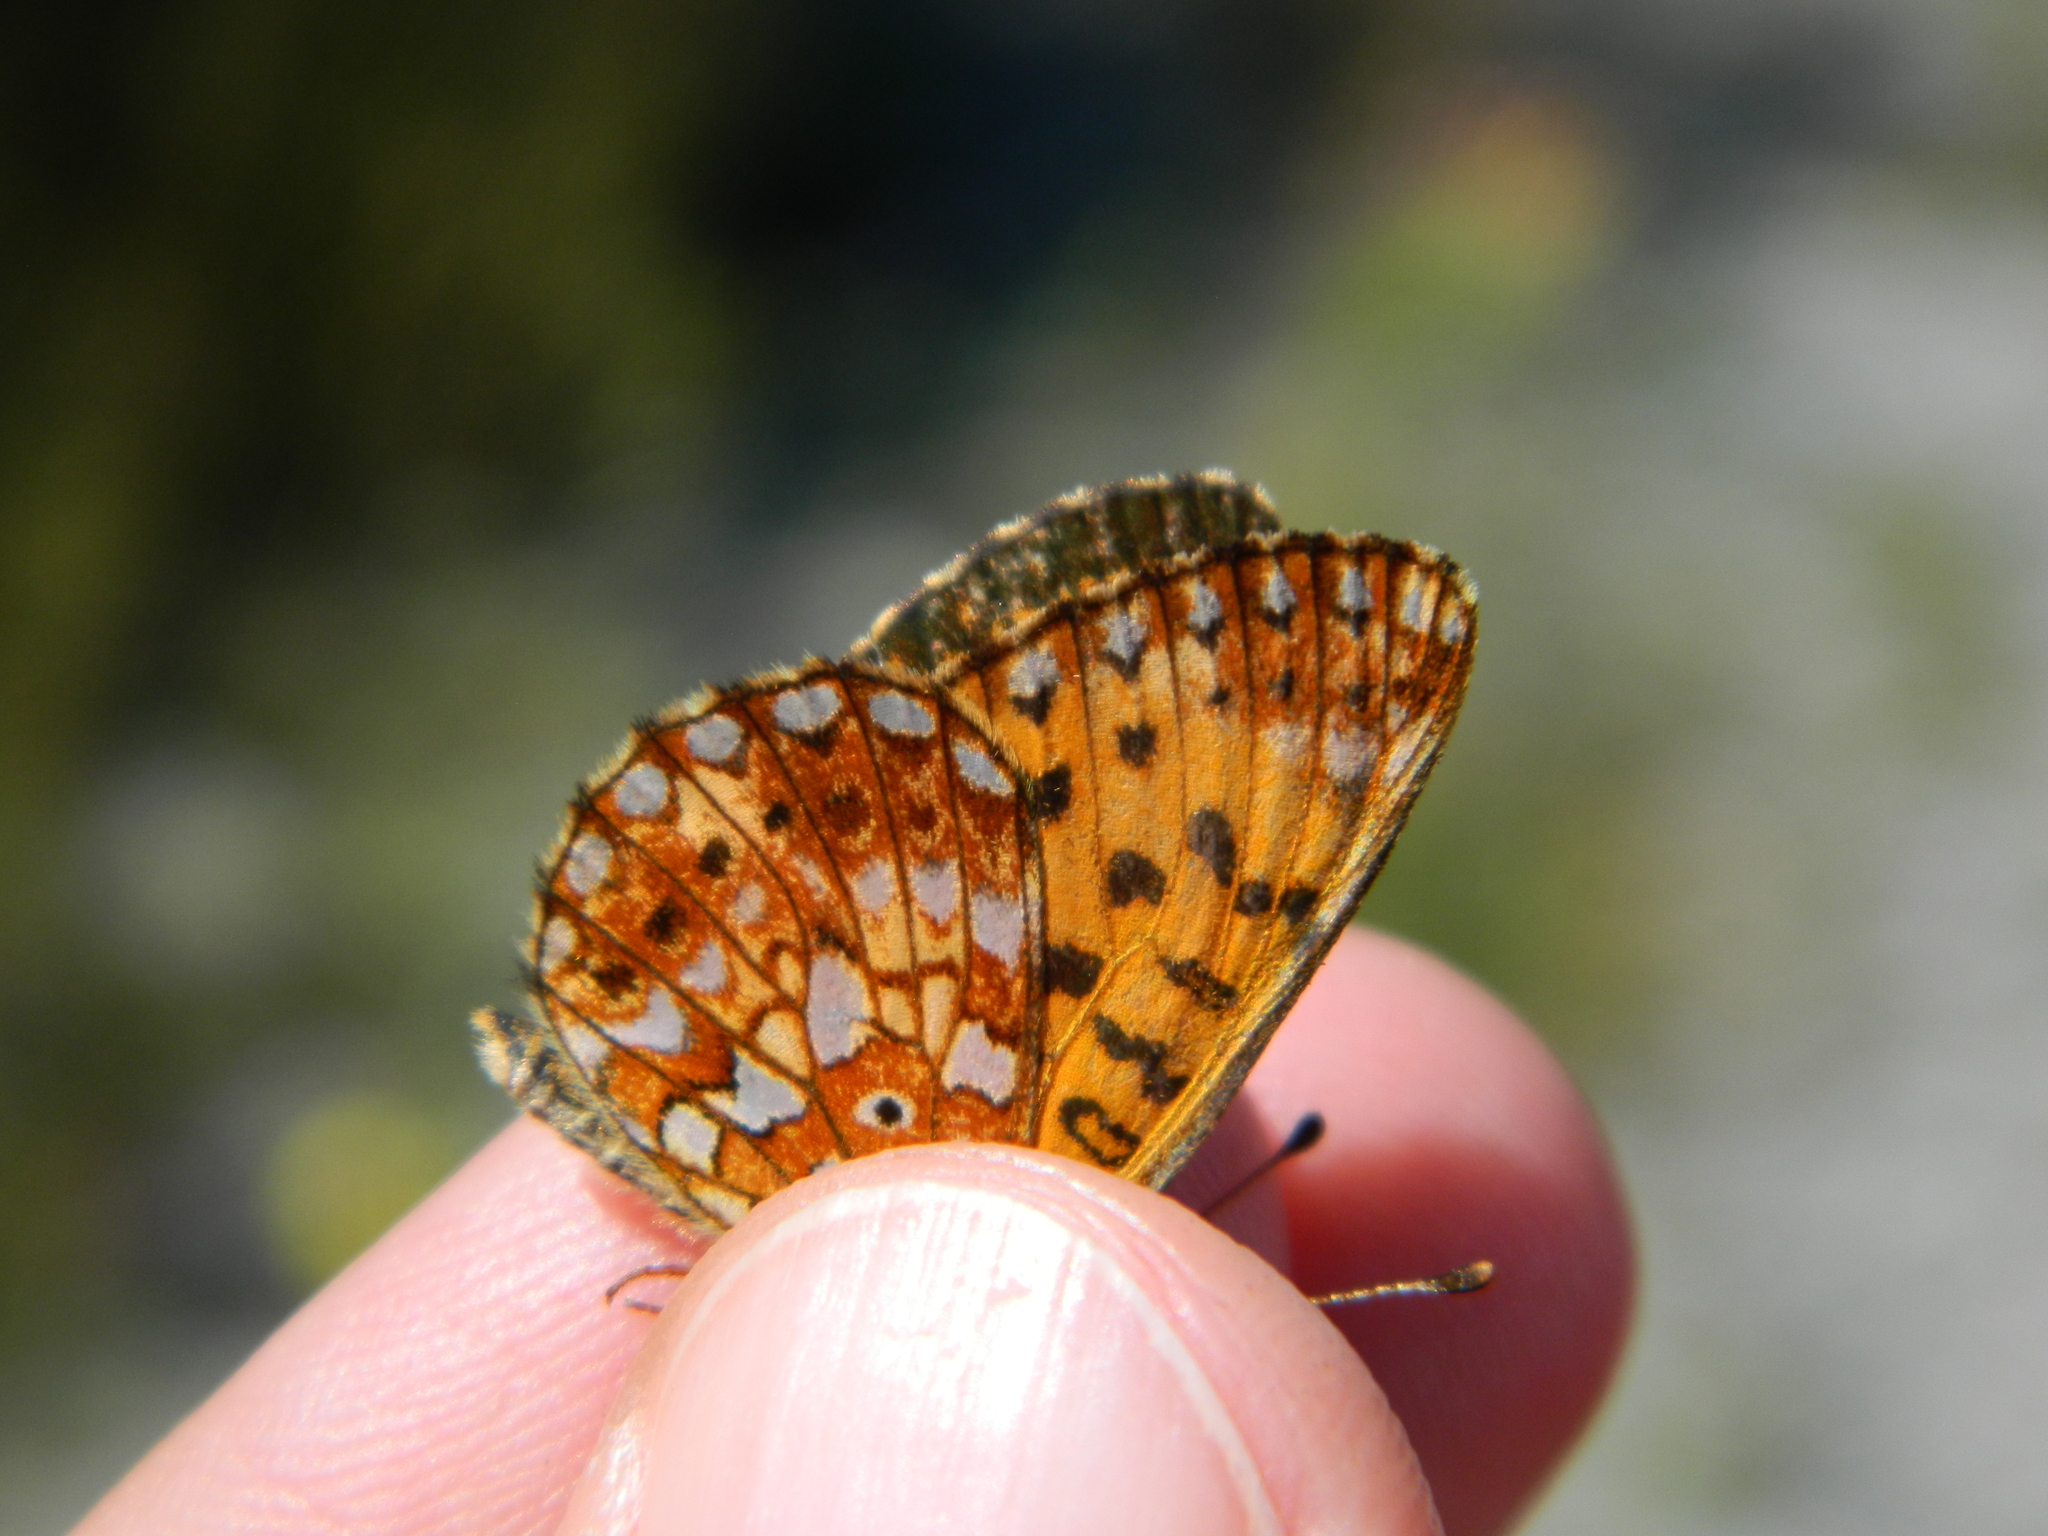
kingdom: Animalia
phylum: Arthropoda
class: Insecta
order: Lepidoptera
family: Nymphalidae
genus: Boloria
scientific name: Boloria
